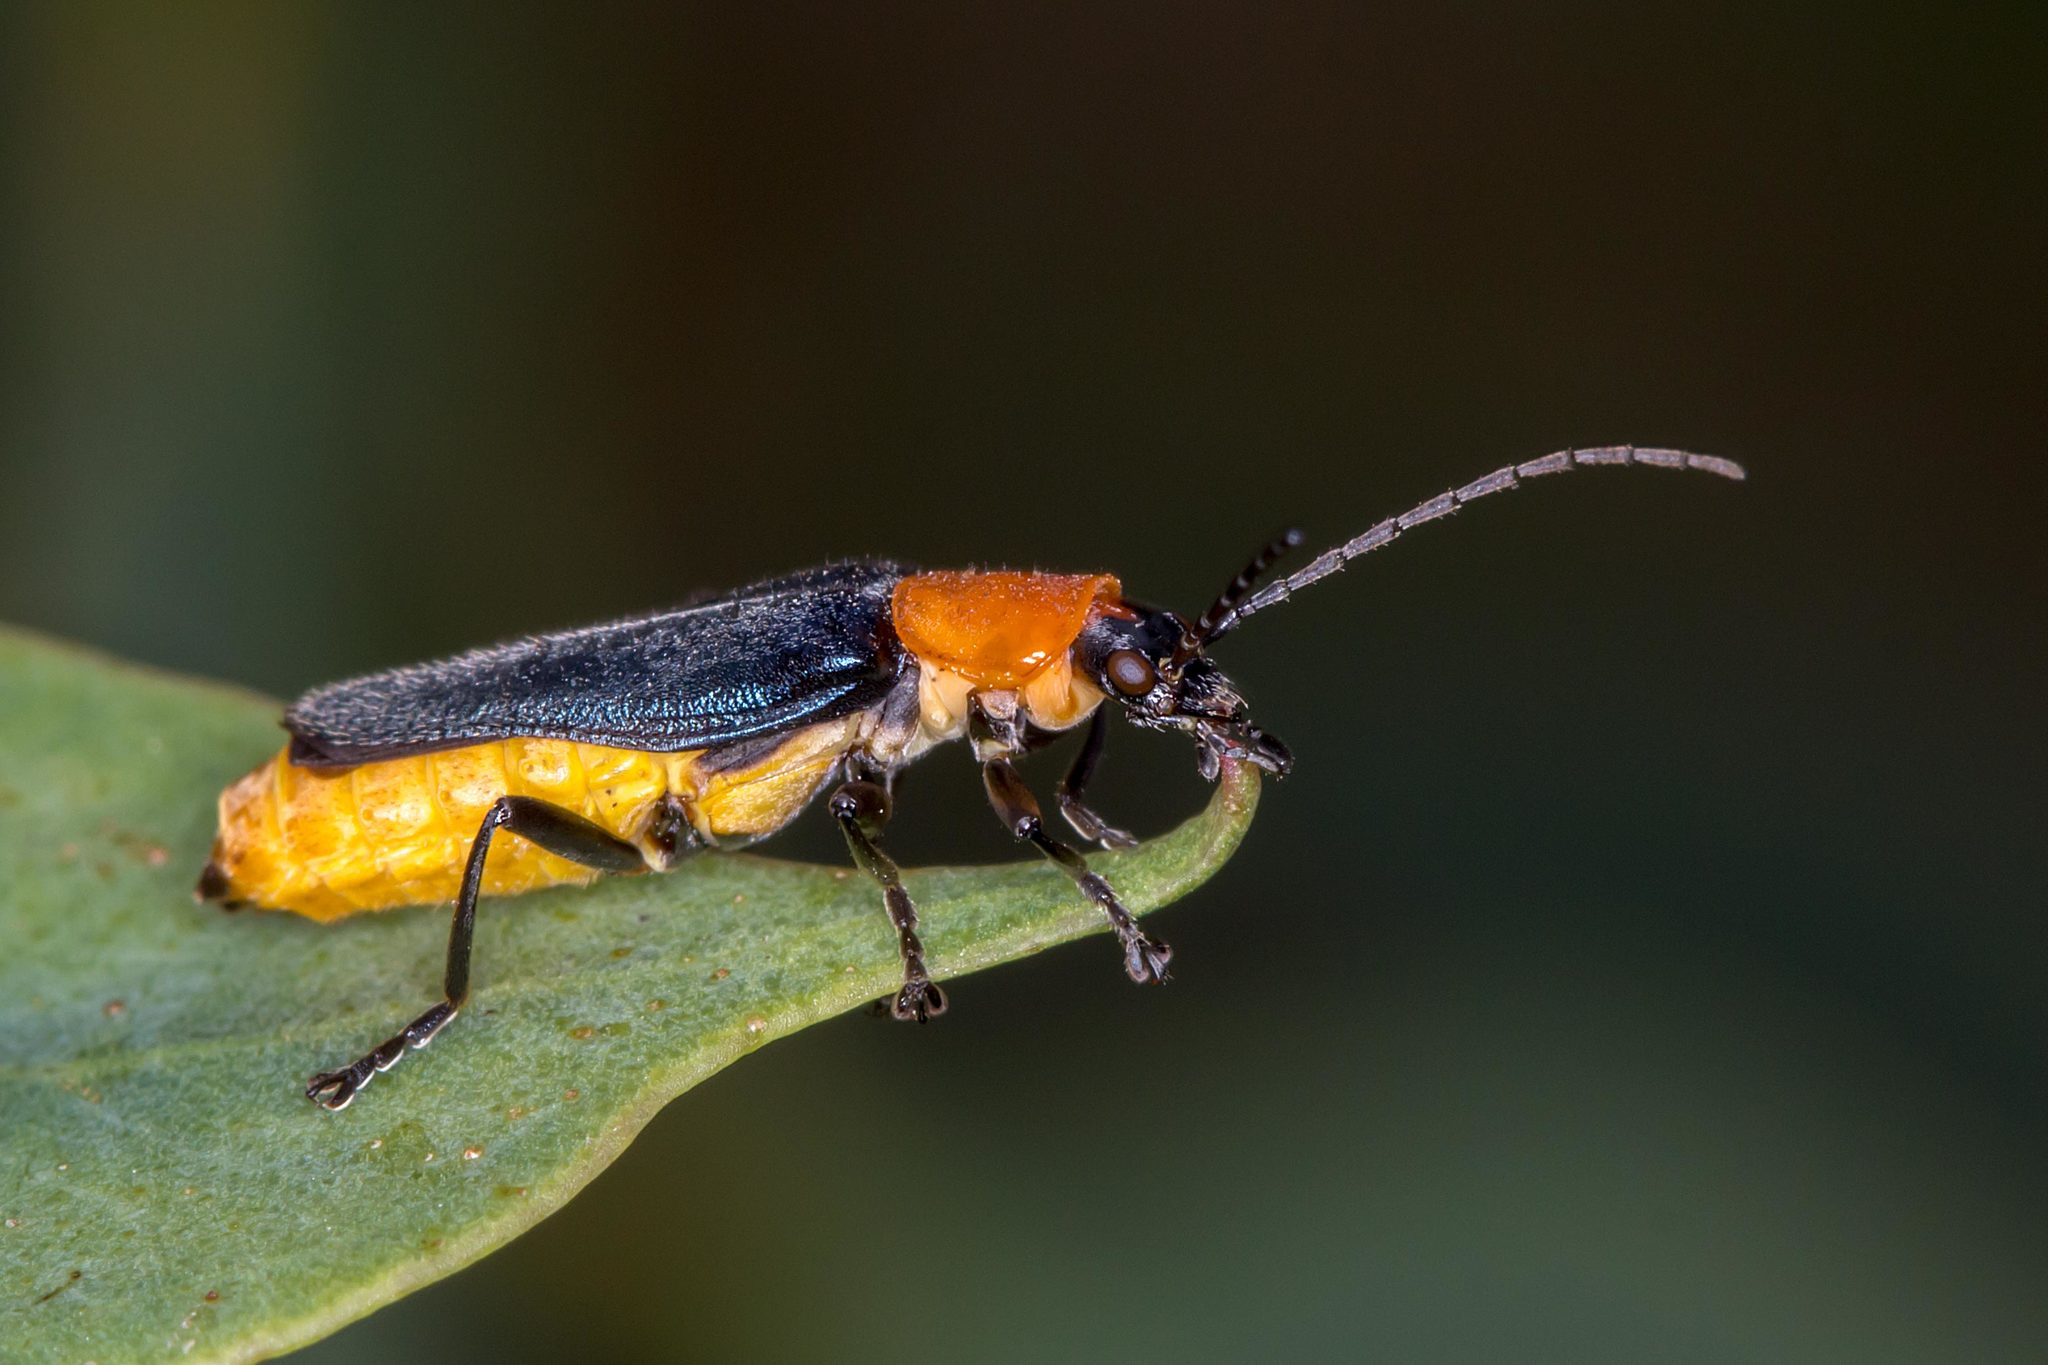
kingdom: Animalia
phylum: Arthropoda
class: Insecta
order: Coleoptera
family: Cantharidae
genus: Chauliognathus
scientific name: Chauliognathus
